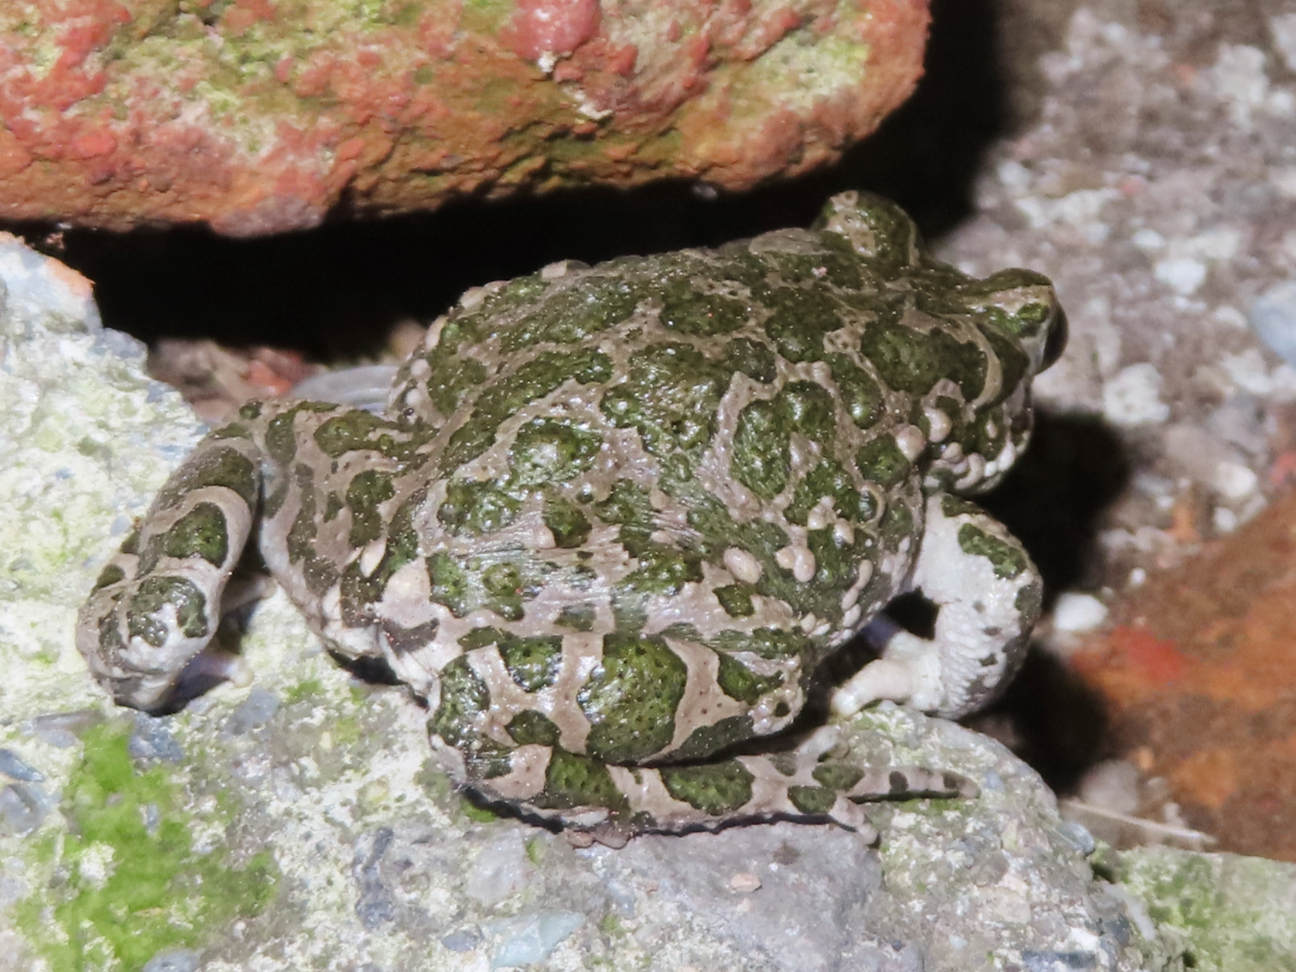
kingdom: Animalia
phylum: Chordata
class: Amphibia
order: Anura
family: Bufonidae
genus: Bufotes
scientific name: Bufotes viridis
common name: European green toad
